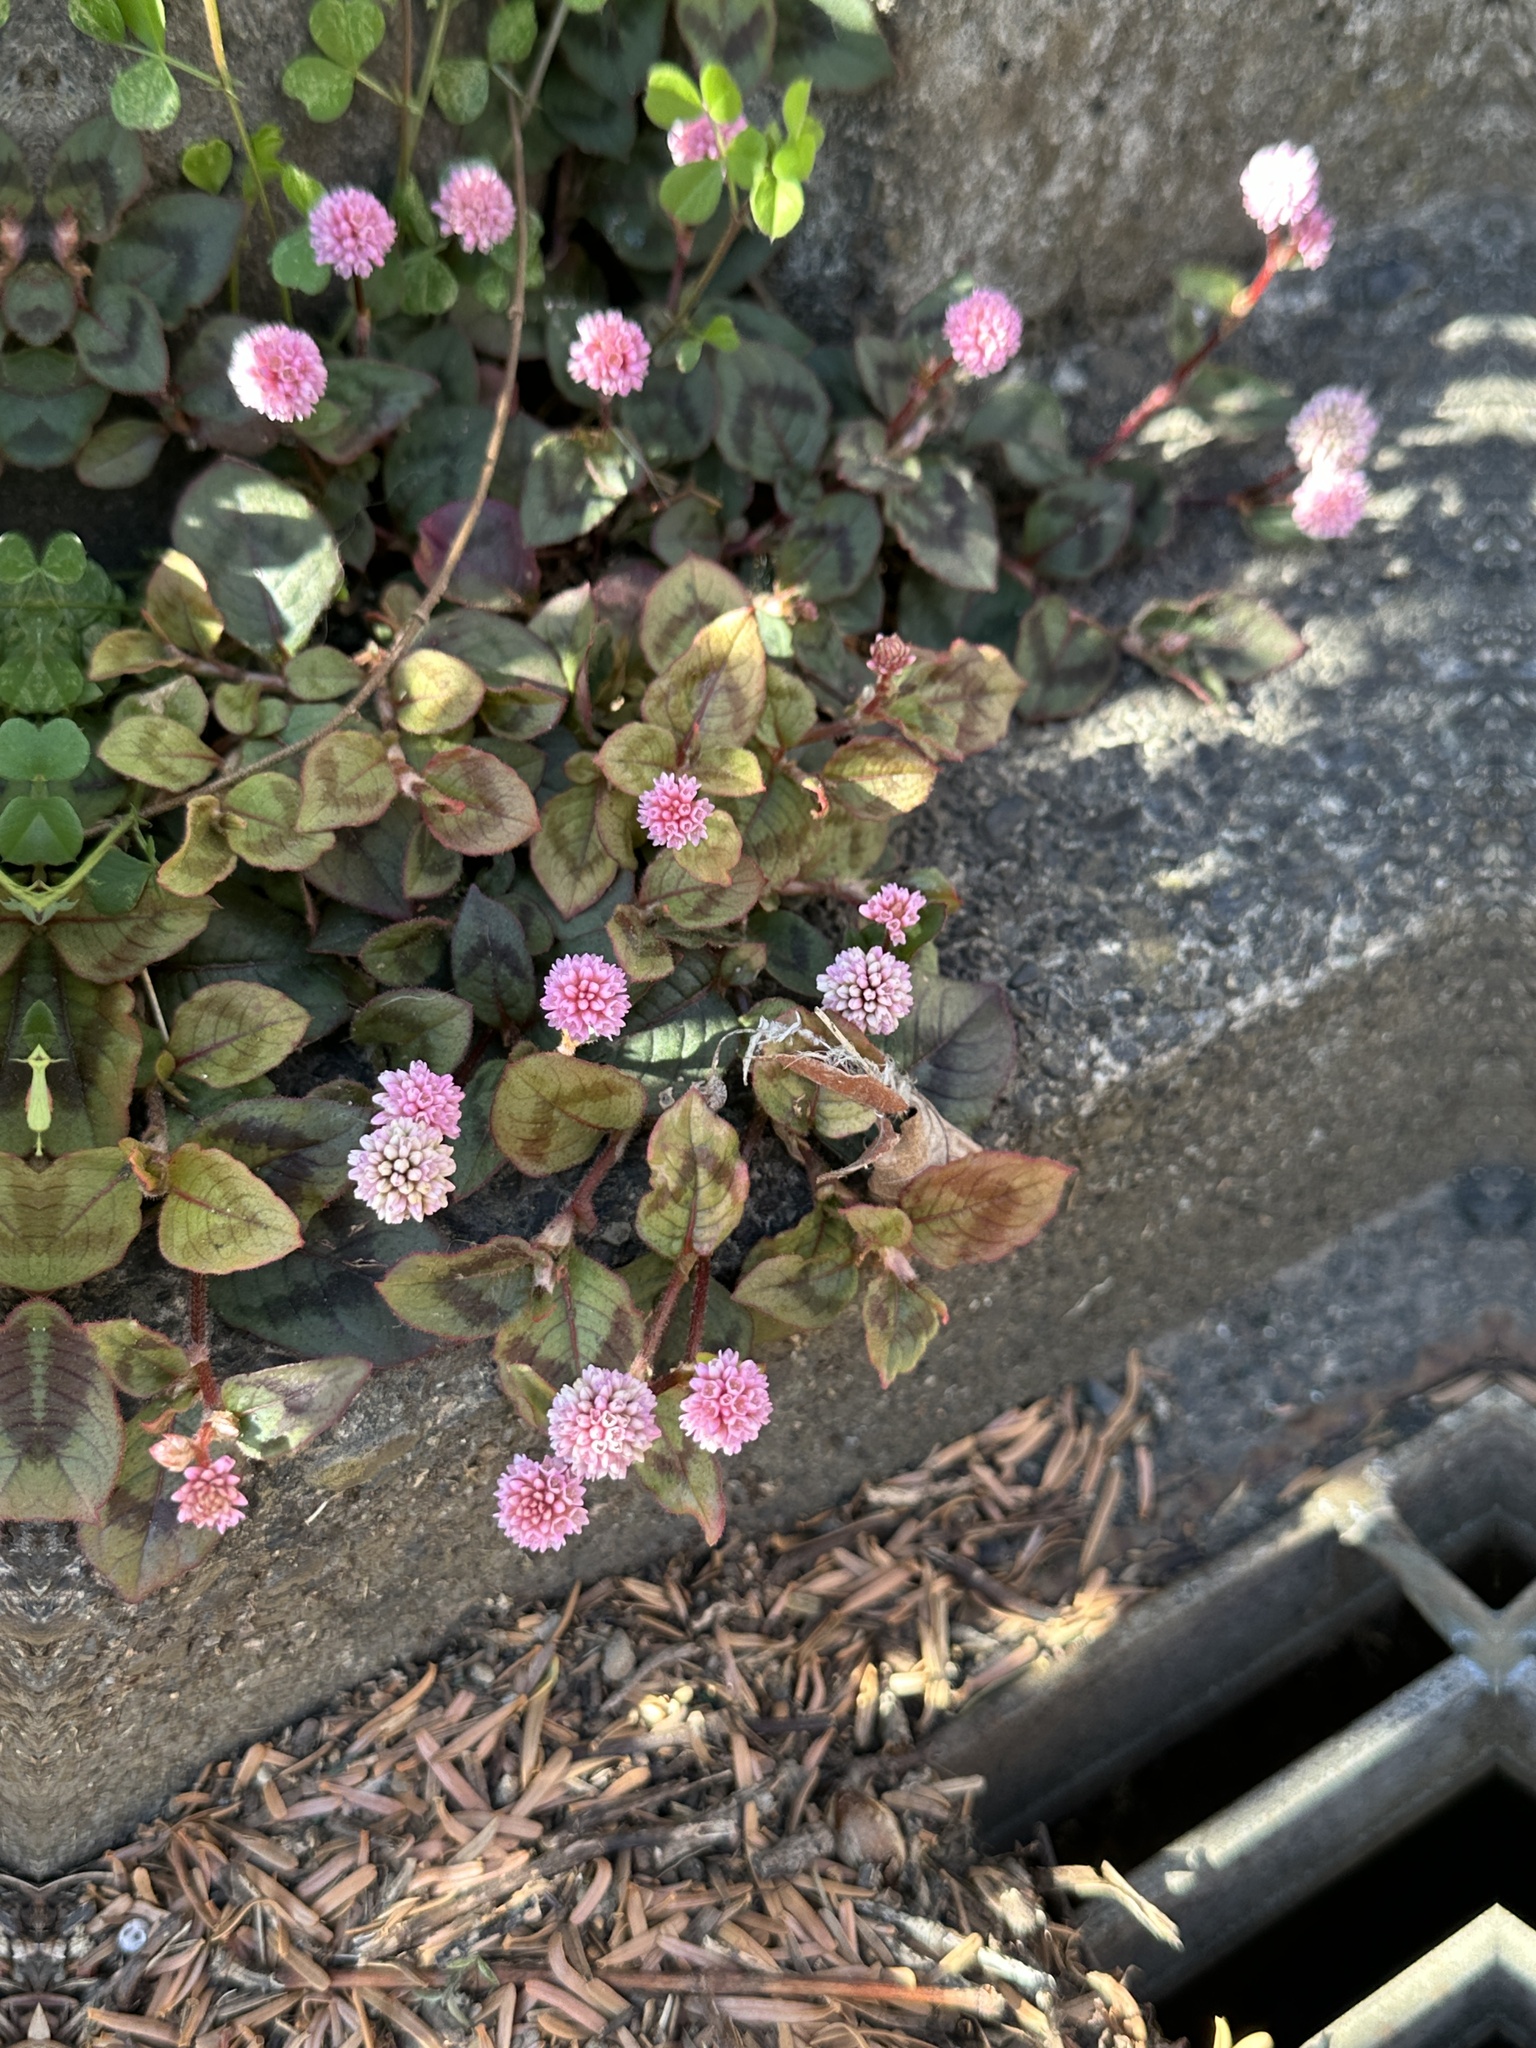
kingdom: Plantae
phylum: Tracheophyta
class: Magnoliopsida
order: Caryophyllales
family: Polygonaceae
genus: Persicaria
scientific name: Persicaria capitata
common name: Pinkhead smartweed
